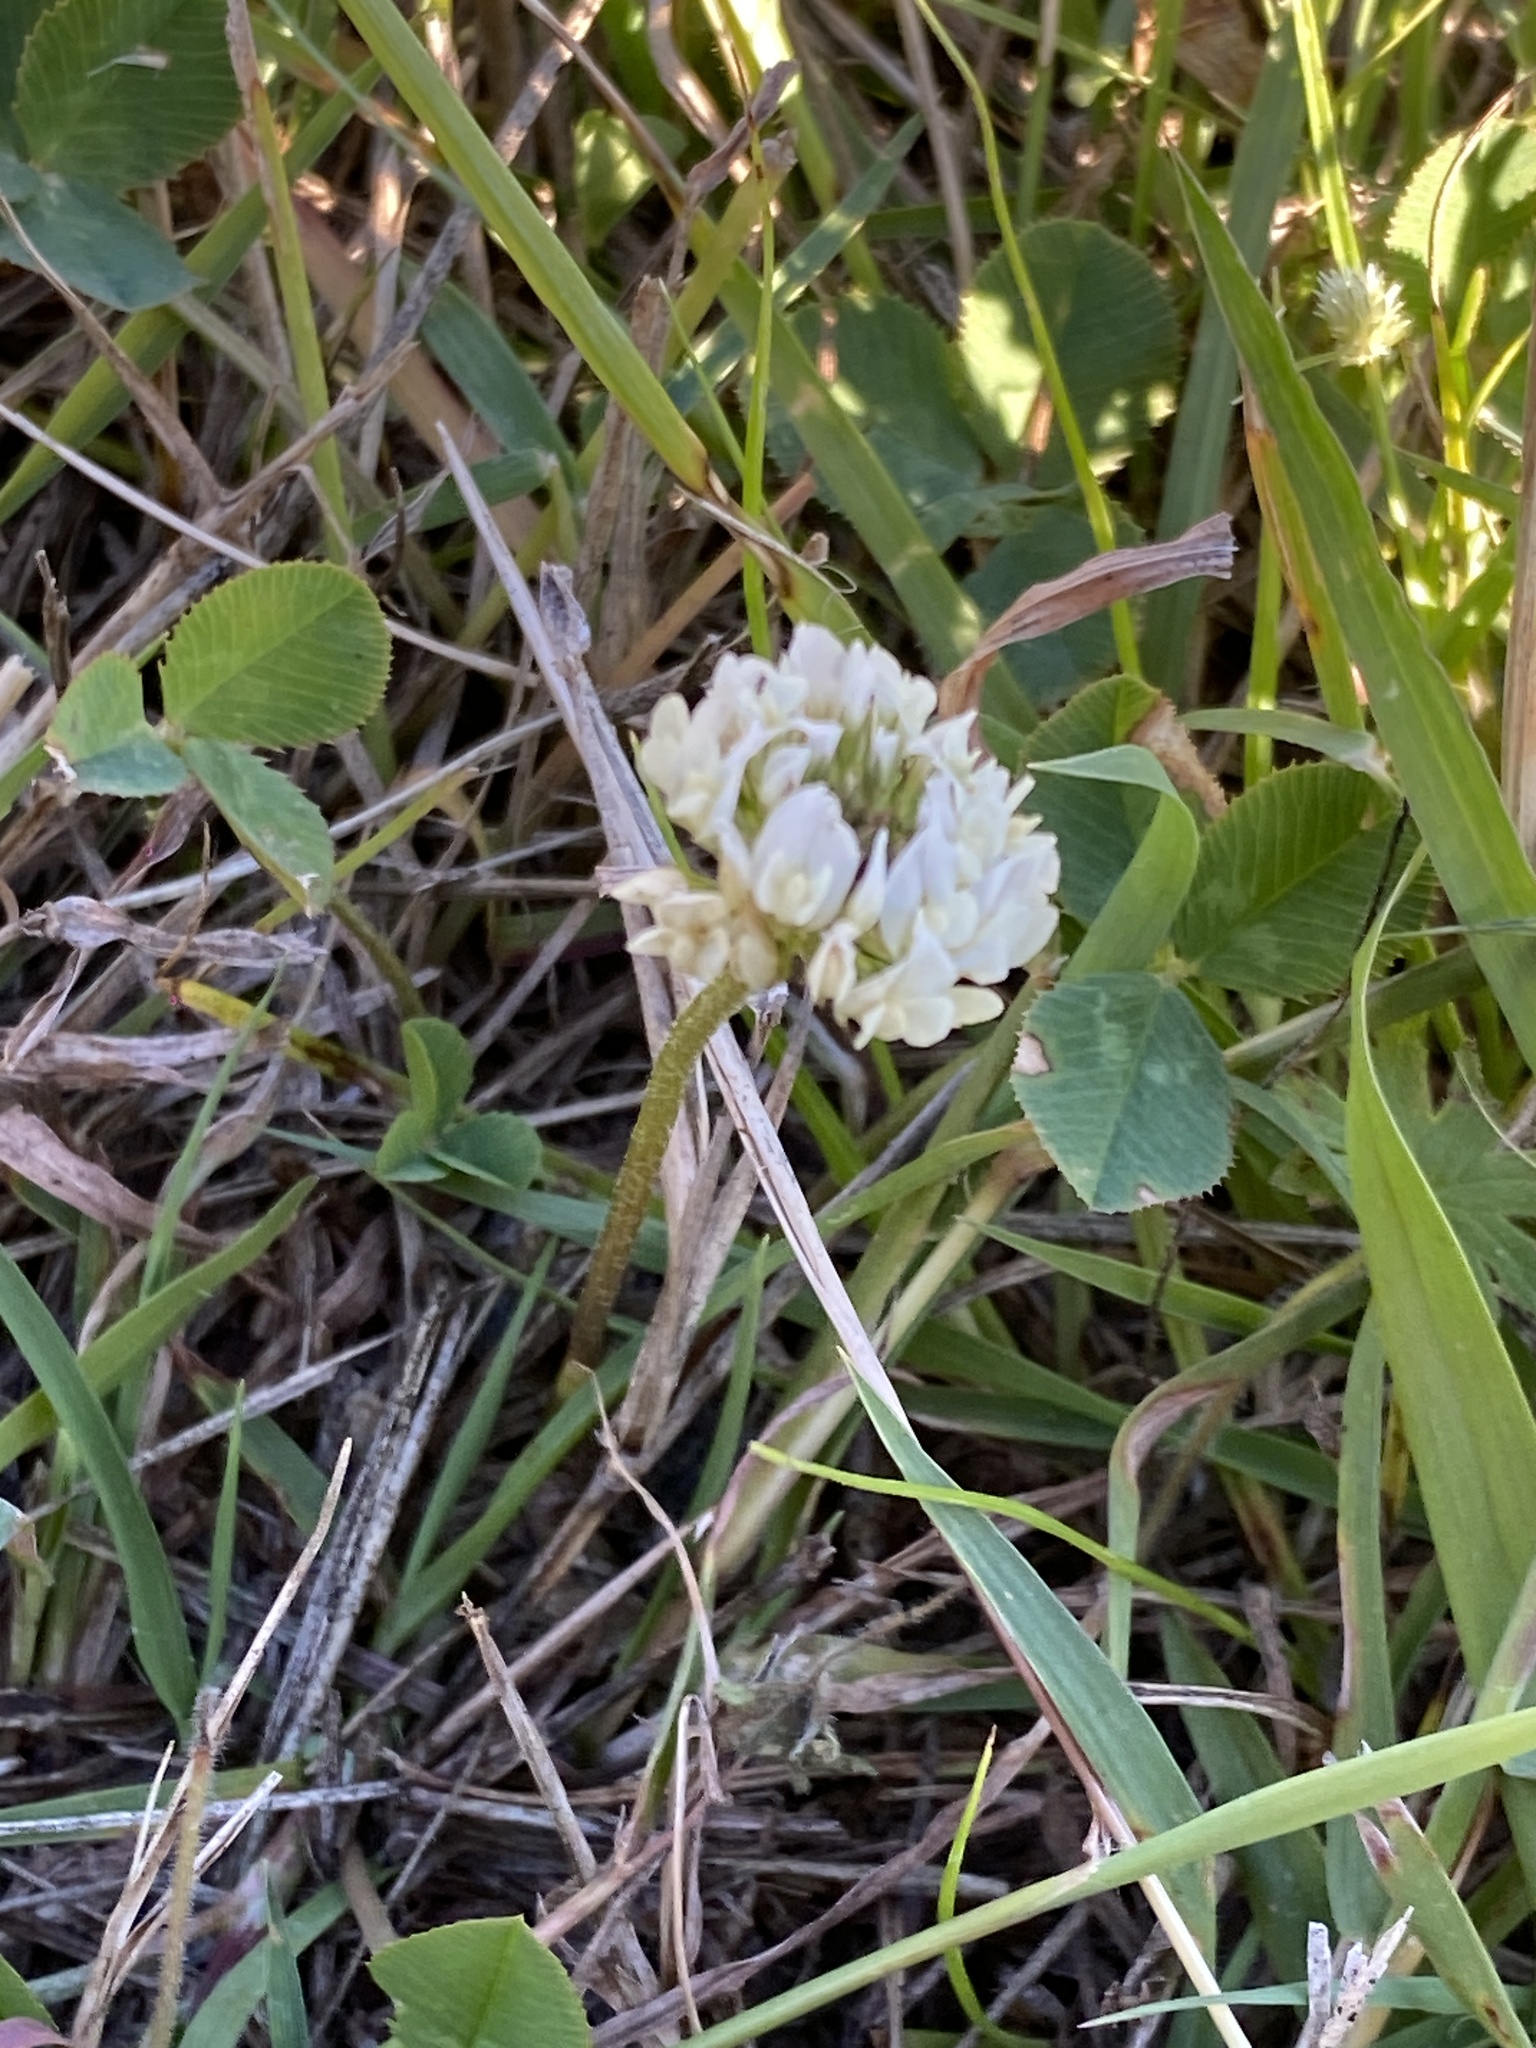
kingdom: Plantae
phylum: Tracheophyta
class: Magnoliopsida
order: Fabales
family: Fabaceae
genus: Trifolium
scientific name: Trifolium repens
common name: White clover
